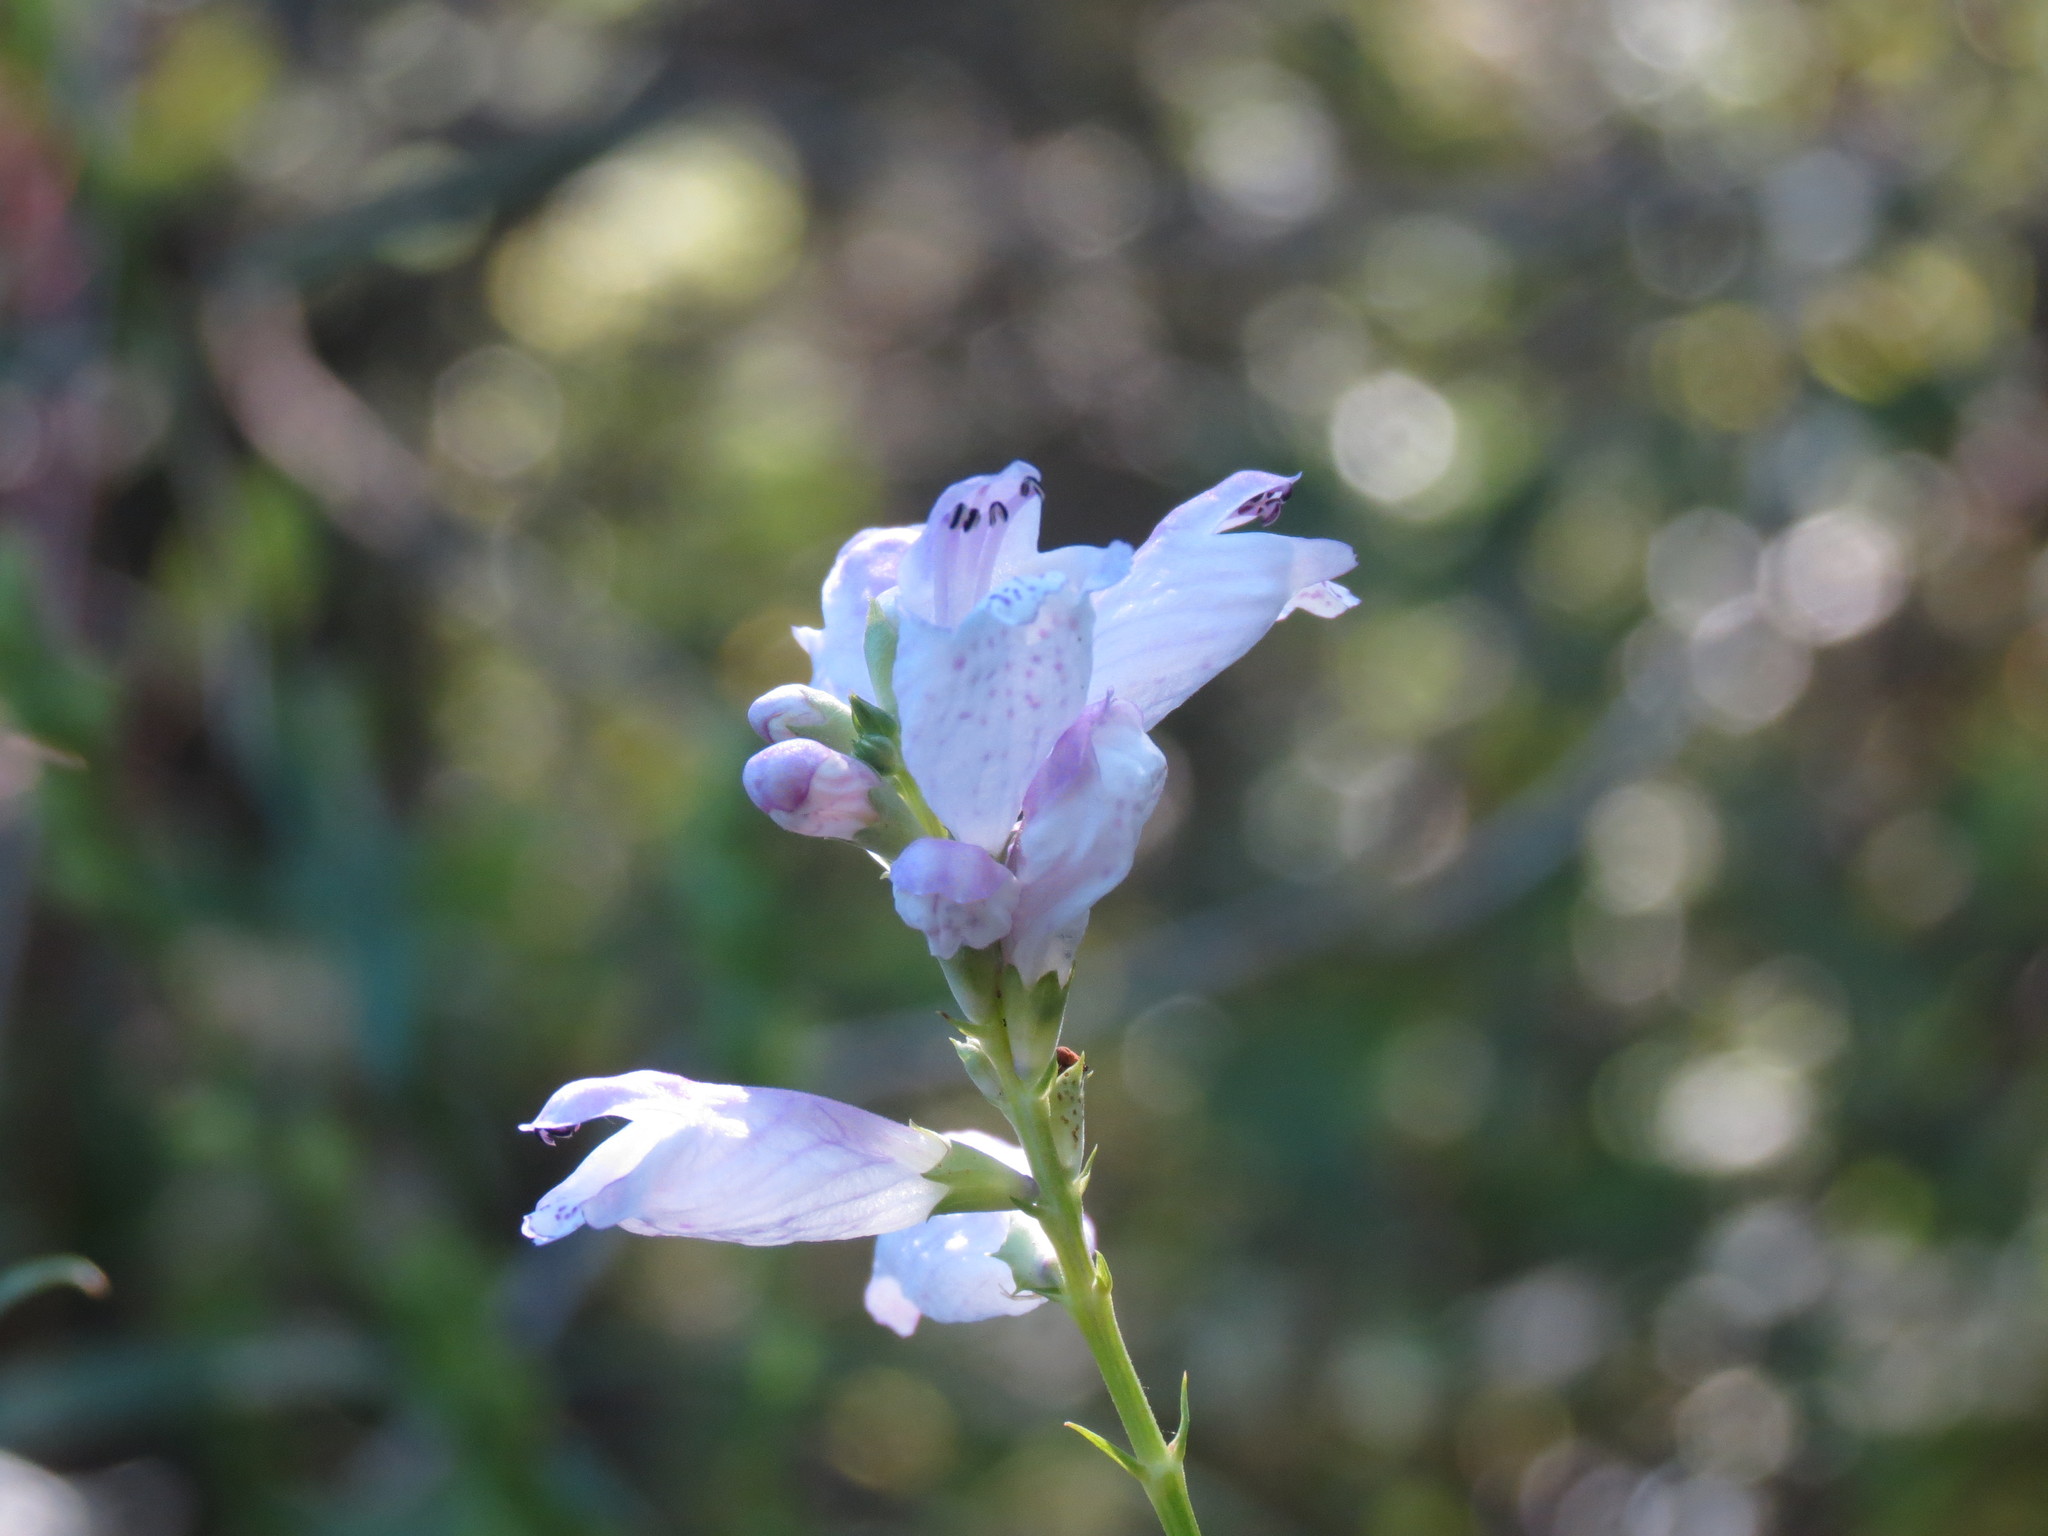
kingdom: Plantae
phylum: Tracheophyta
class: Magnoliopsida
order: Lamiales
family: Lamiaceae
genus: Physostegia
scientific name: Physostegia virginiana
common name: Obedient-plant
